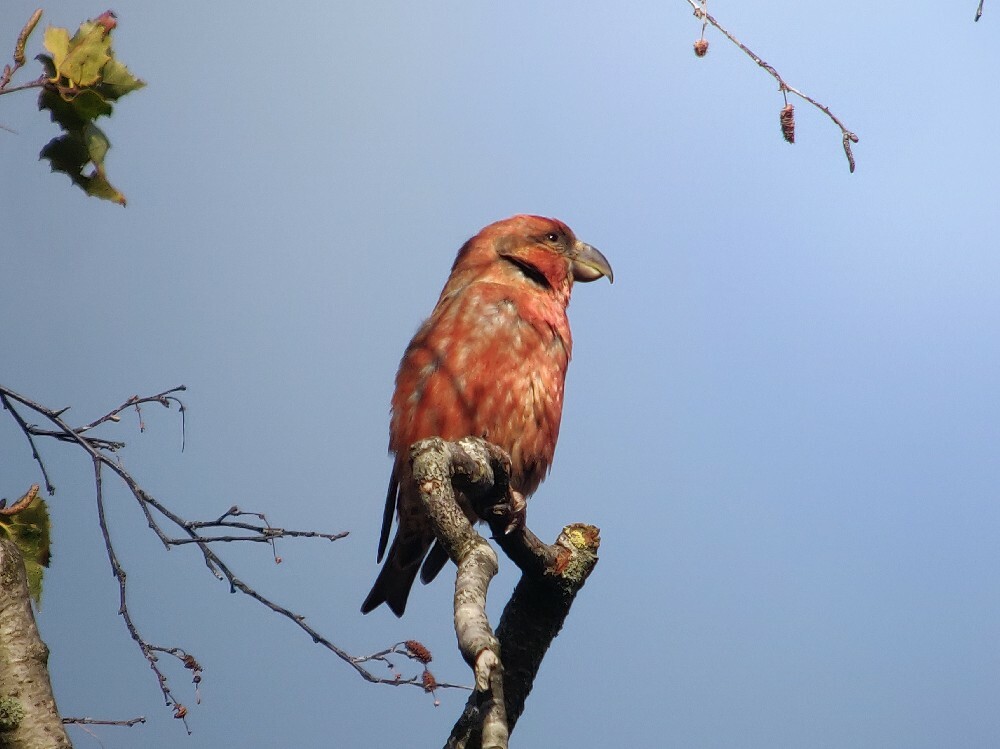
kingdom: Animalia
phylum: Chordata
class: Aves
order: Passeriformes
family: Fringillidae
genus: Loxia
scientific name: Loxia pytyopsittacus
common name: Parrot crossbill
